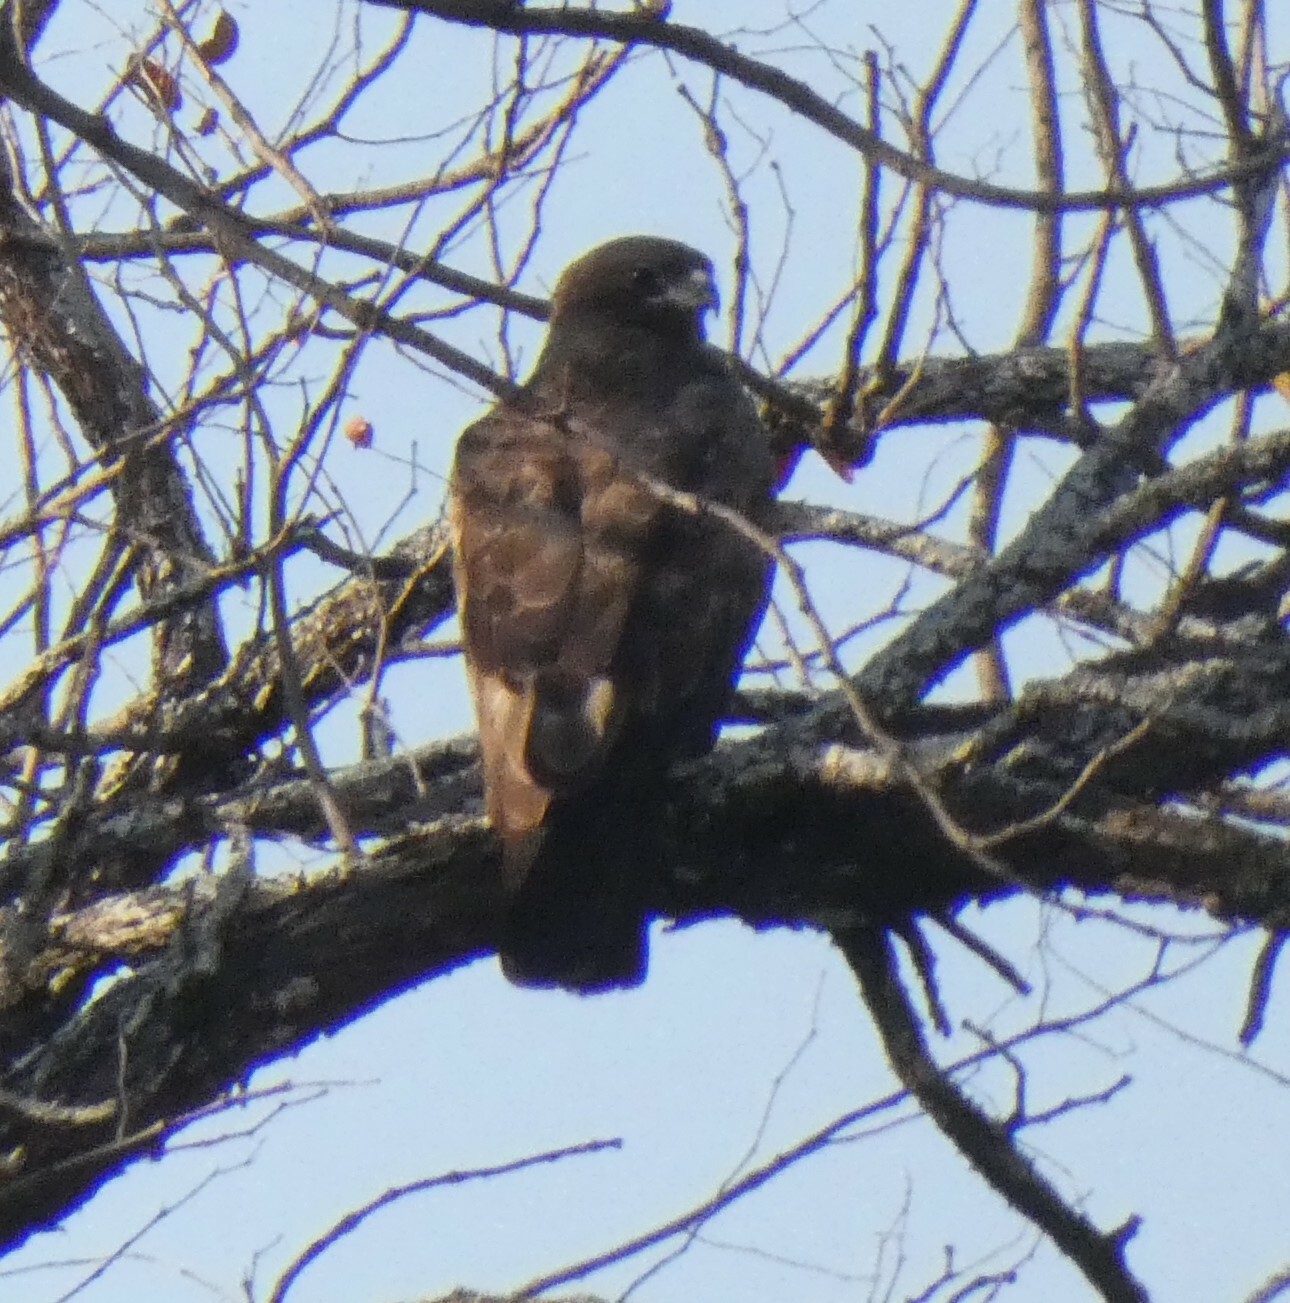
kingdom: Animalia
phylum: Chordata
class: Aves
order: Accipitriformes
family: Accipitridae
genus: Hieraaetus
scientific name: Hieraaetus wahlbergi
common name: Wahlberg's eagle
